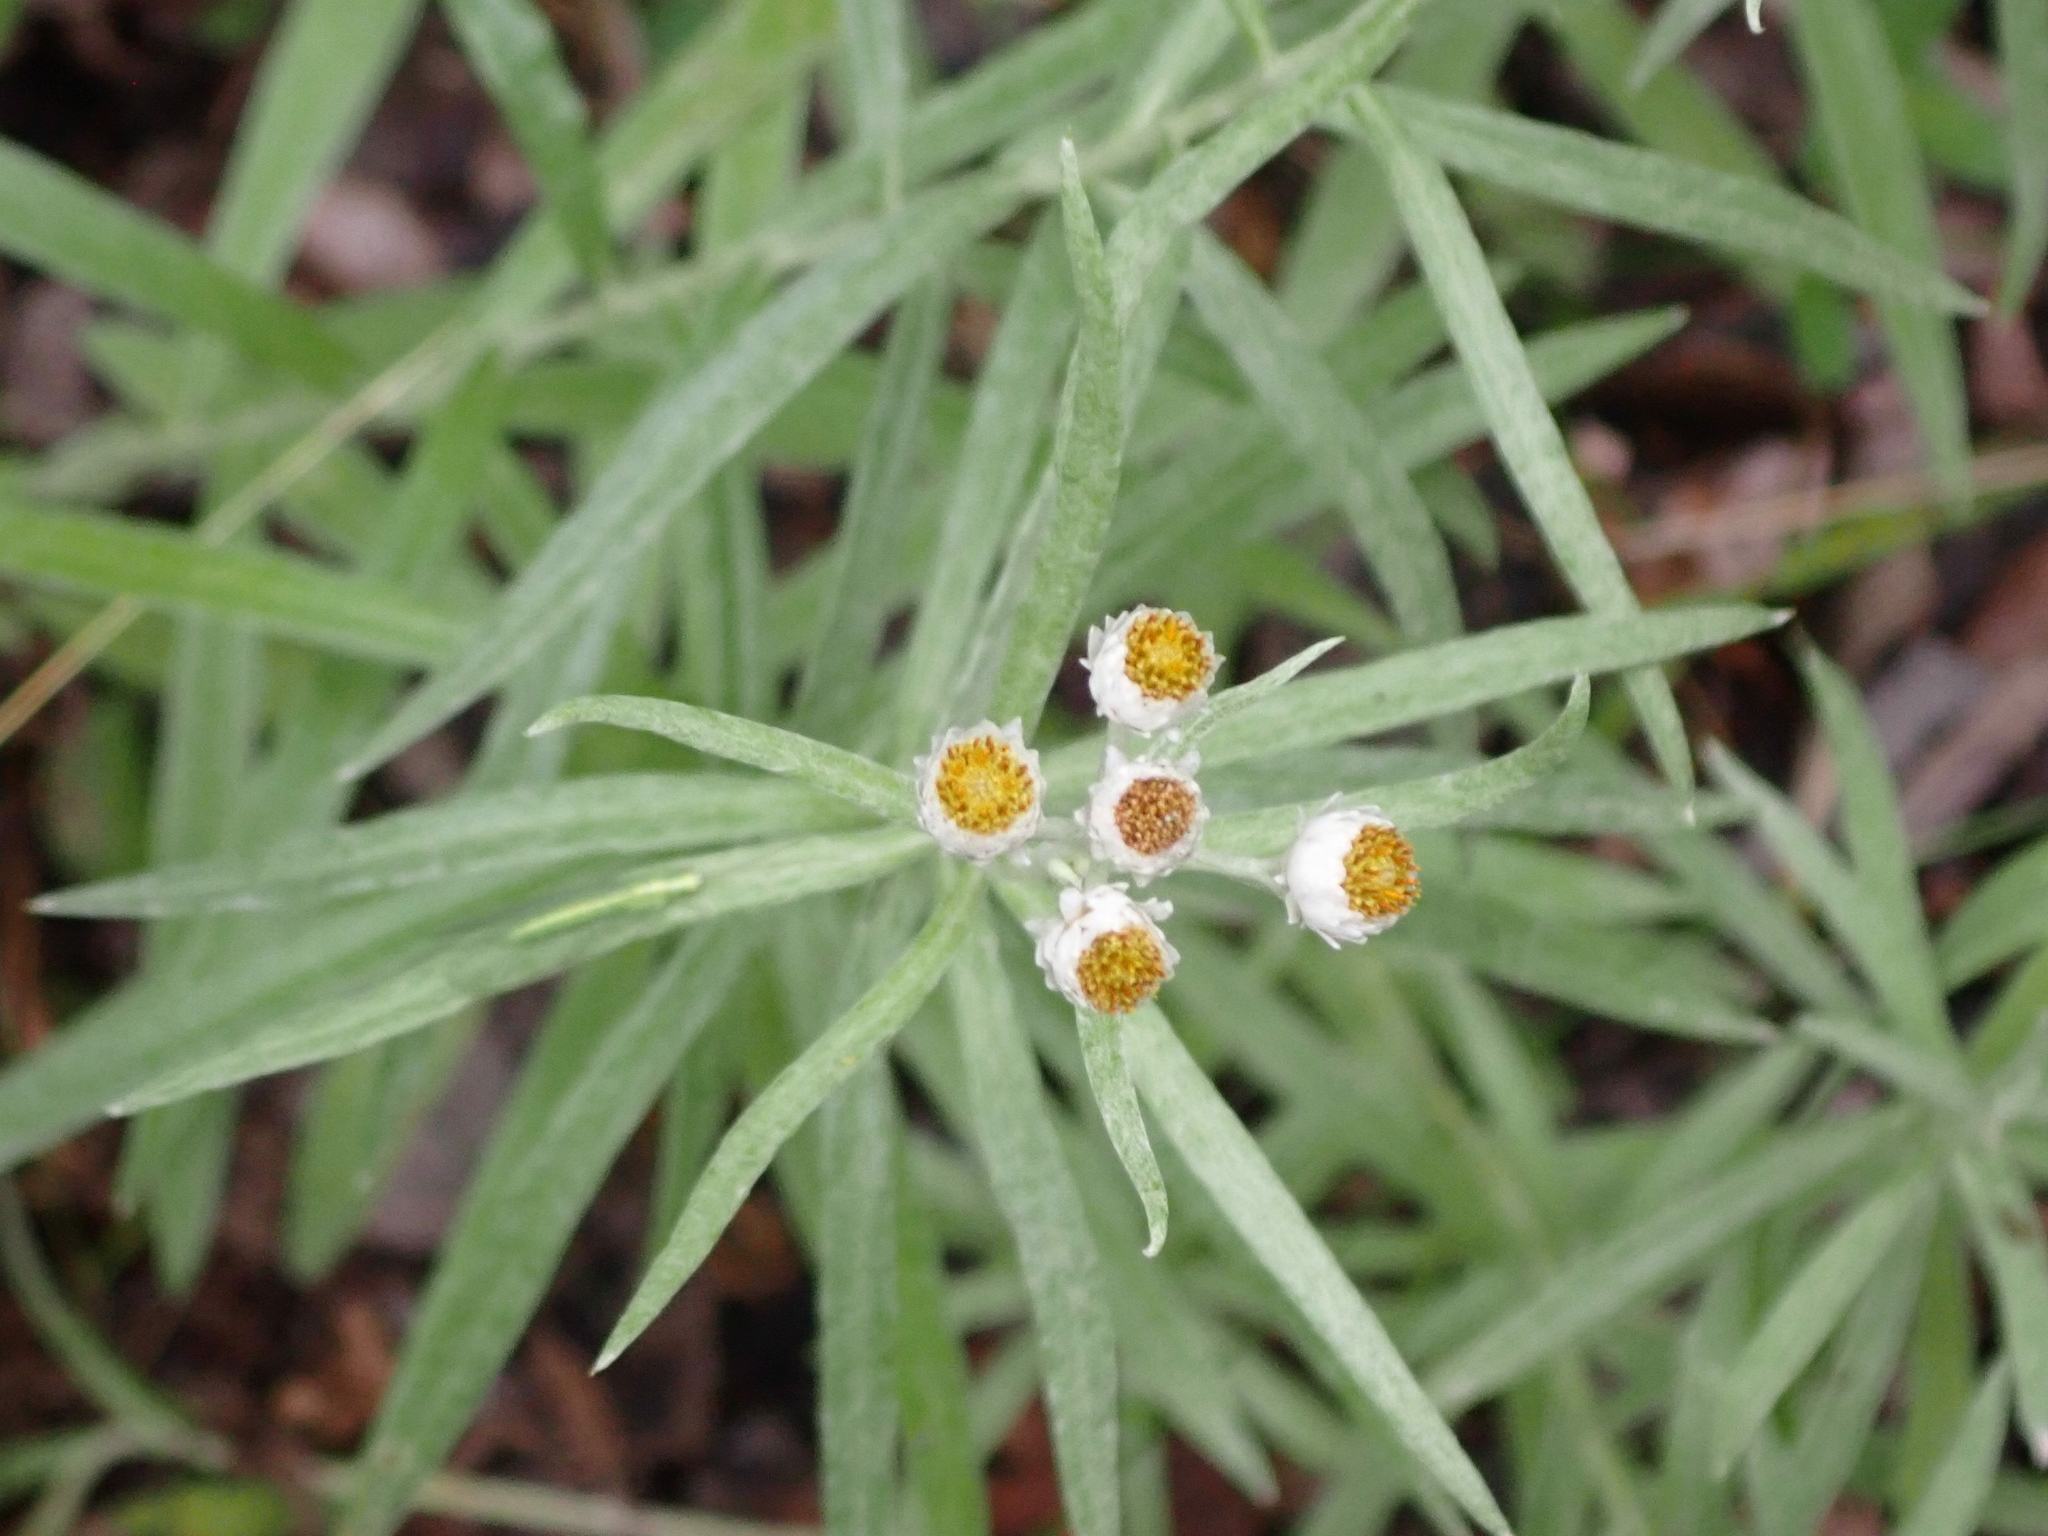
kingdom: Plantae
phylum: Tracheophyta
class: Magnoliopsida
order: Asterales
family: Asteraceae
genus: Anaphalis
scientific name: Anaphalis margaritacea
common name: Pearly everlasting
